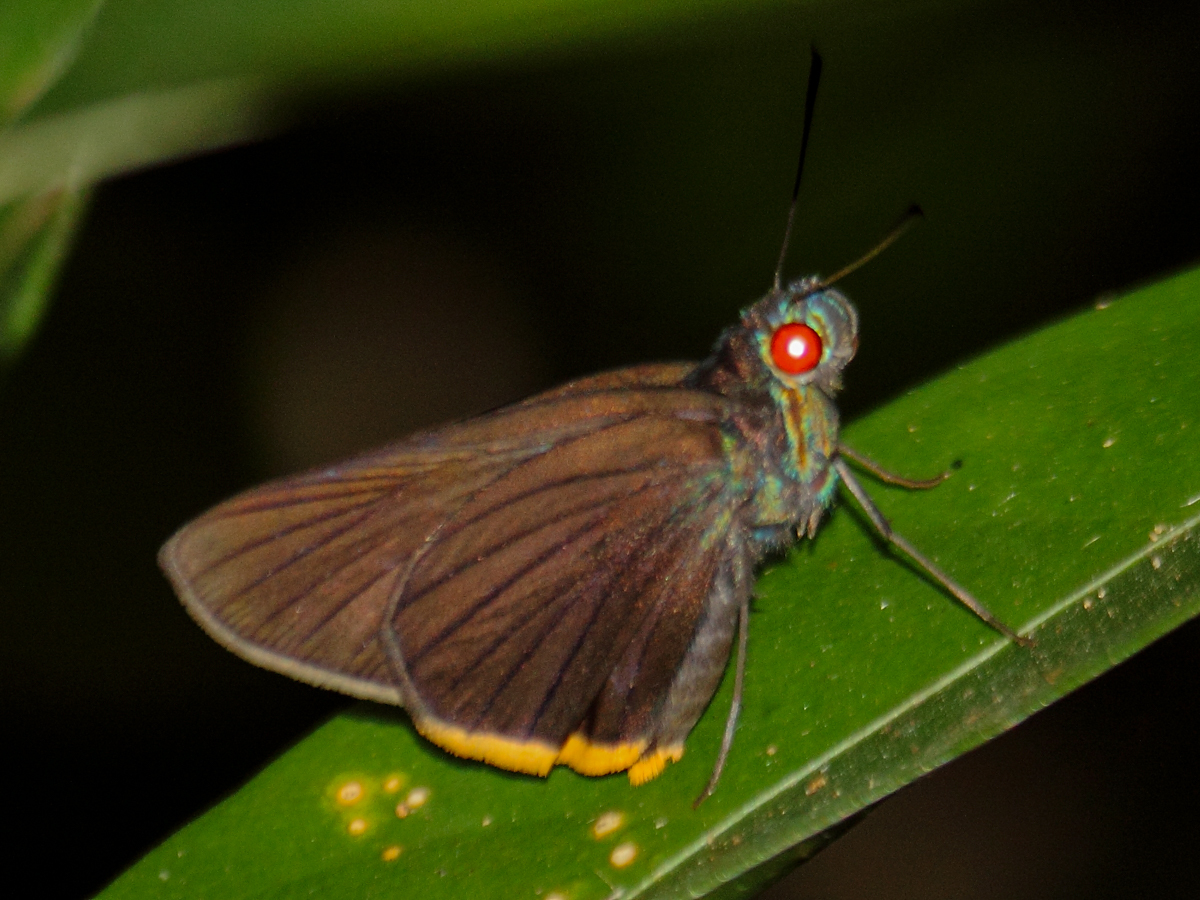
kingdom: Animalia
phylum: Arthropoda
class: Insecta
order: Lepidoptera
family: Hesperiidae
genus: Matapa
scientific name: Matapa sasivarna
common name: Black-veined redeye
